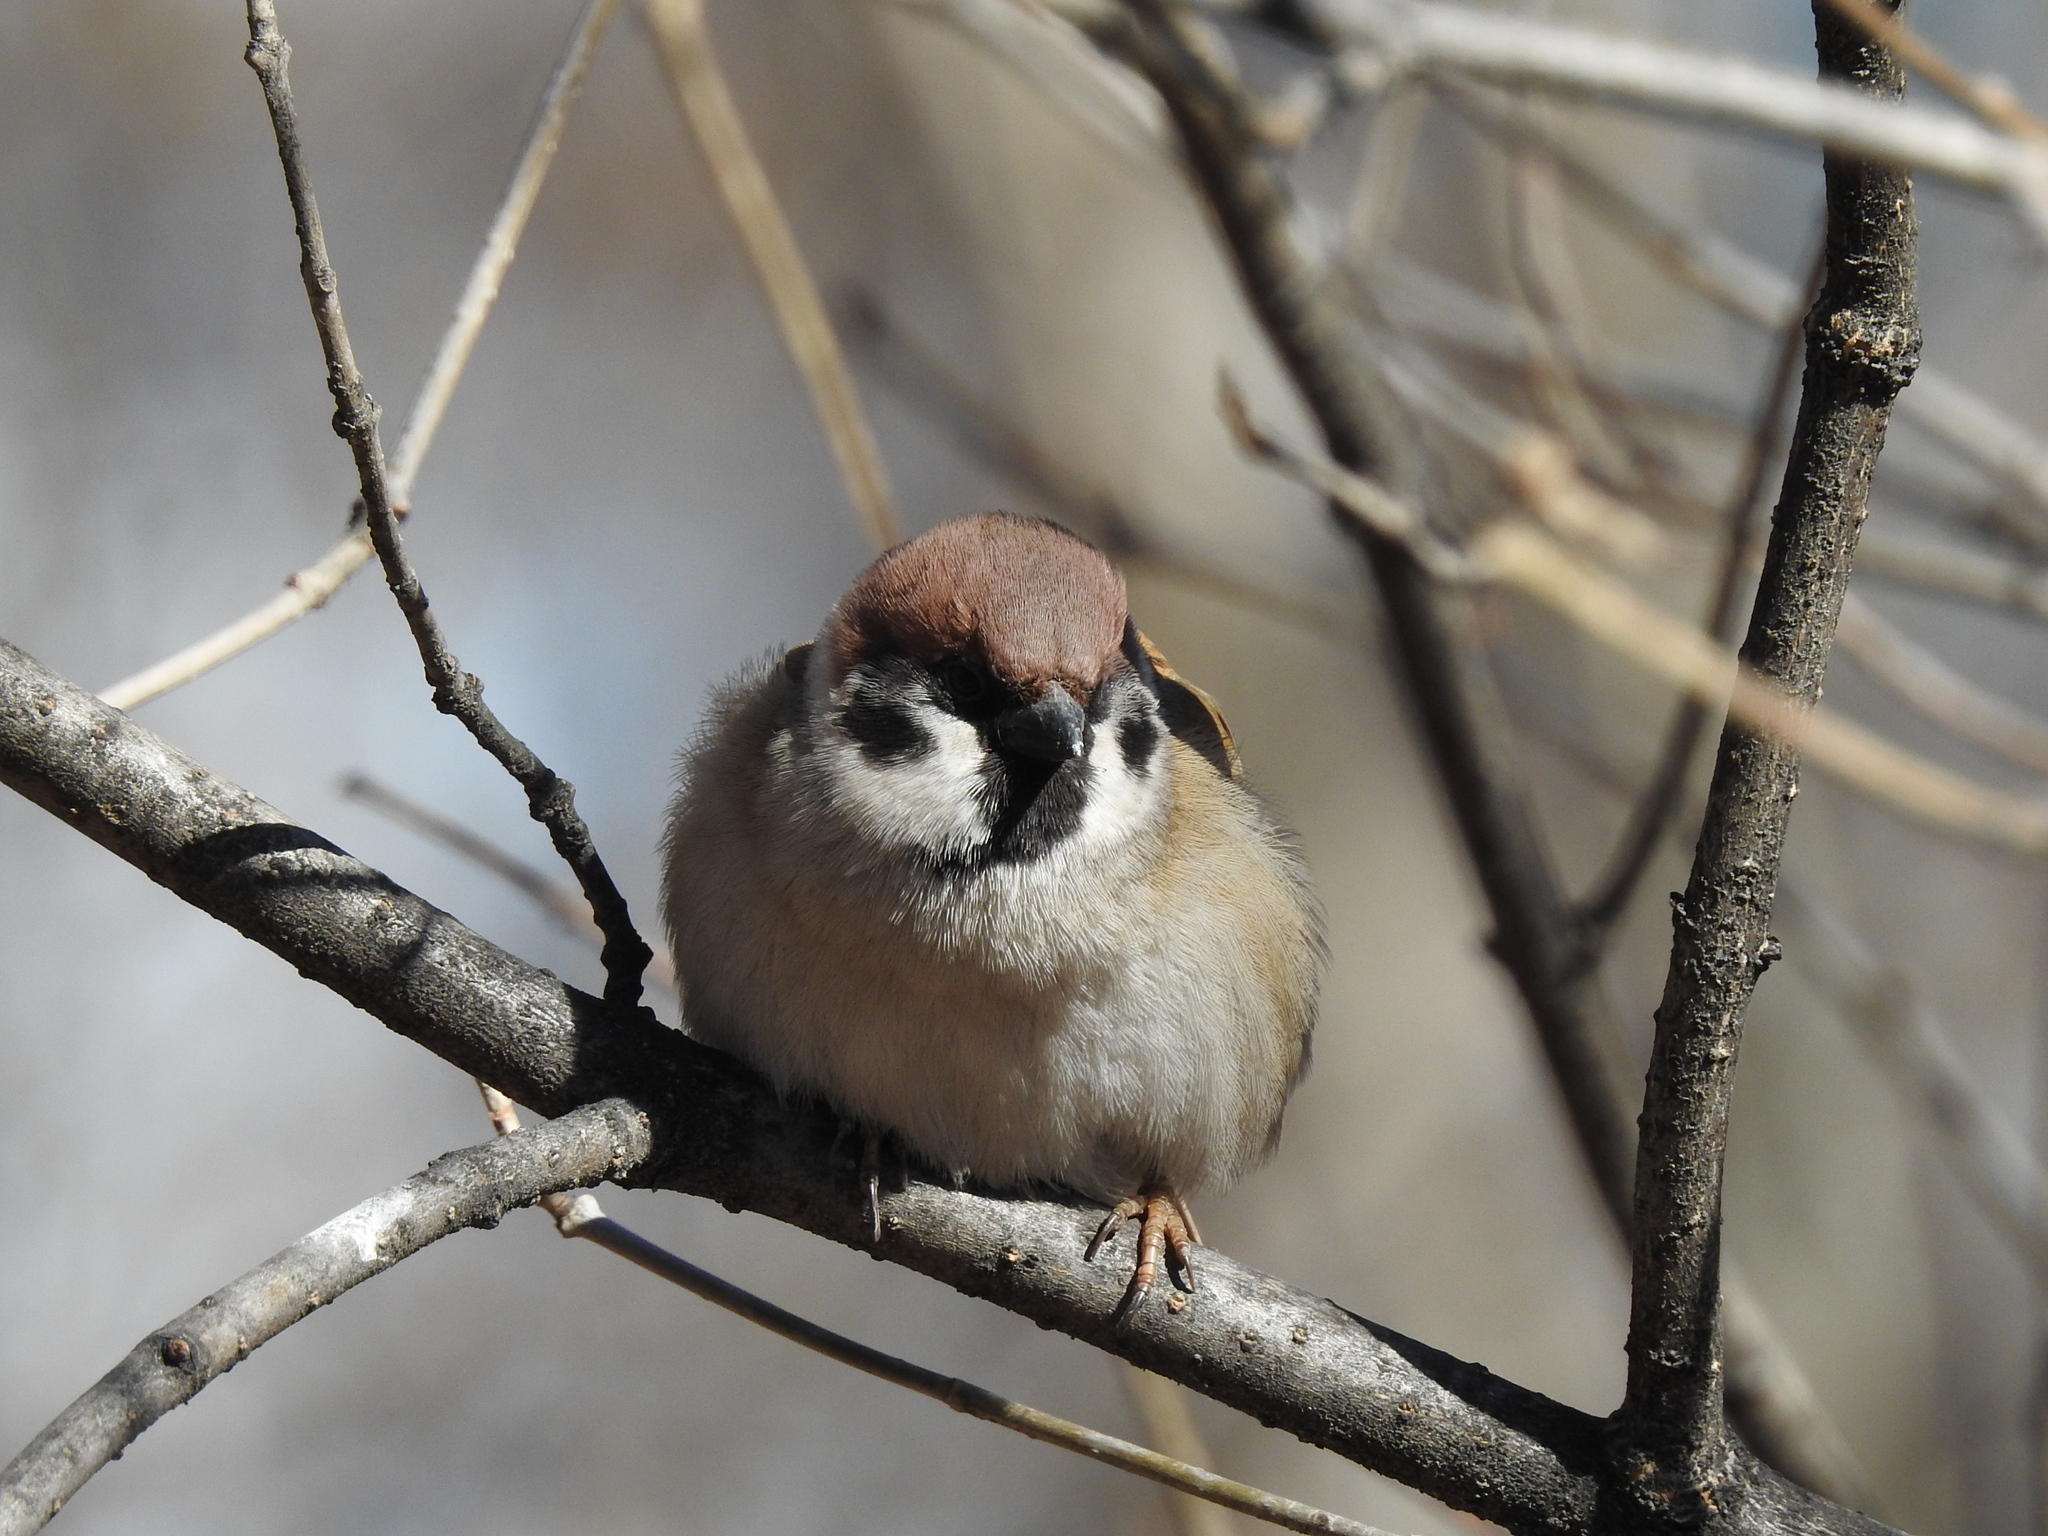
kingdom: Animalia
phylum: Chordata
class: Aves
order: Passeriformes
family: Passeridae
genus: Passer
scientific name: Passer montanus
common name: Eurasian tree sparrow
